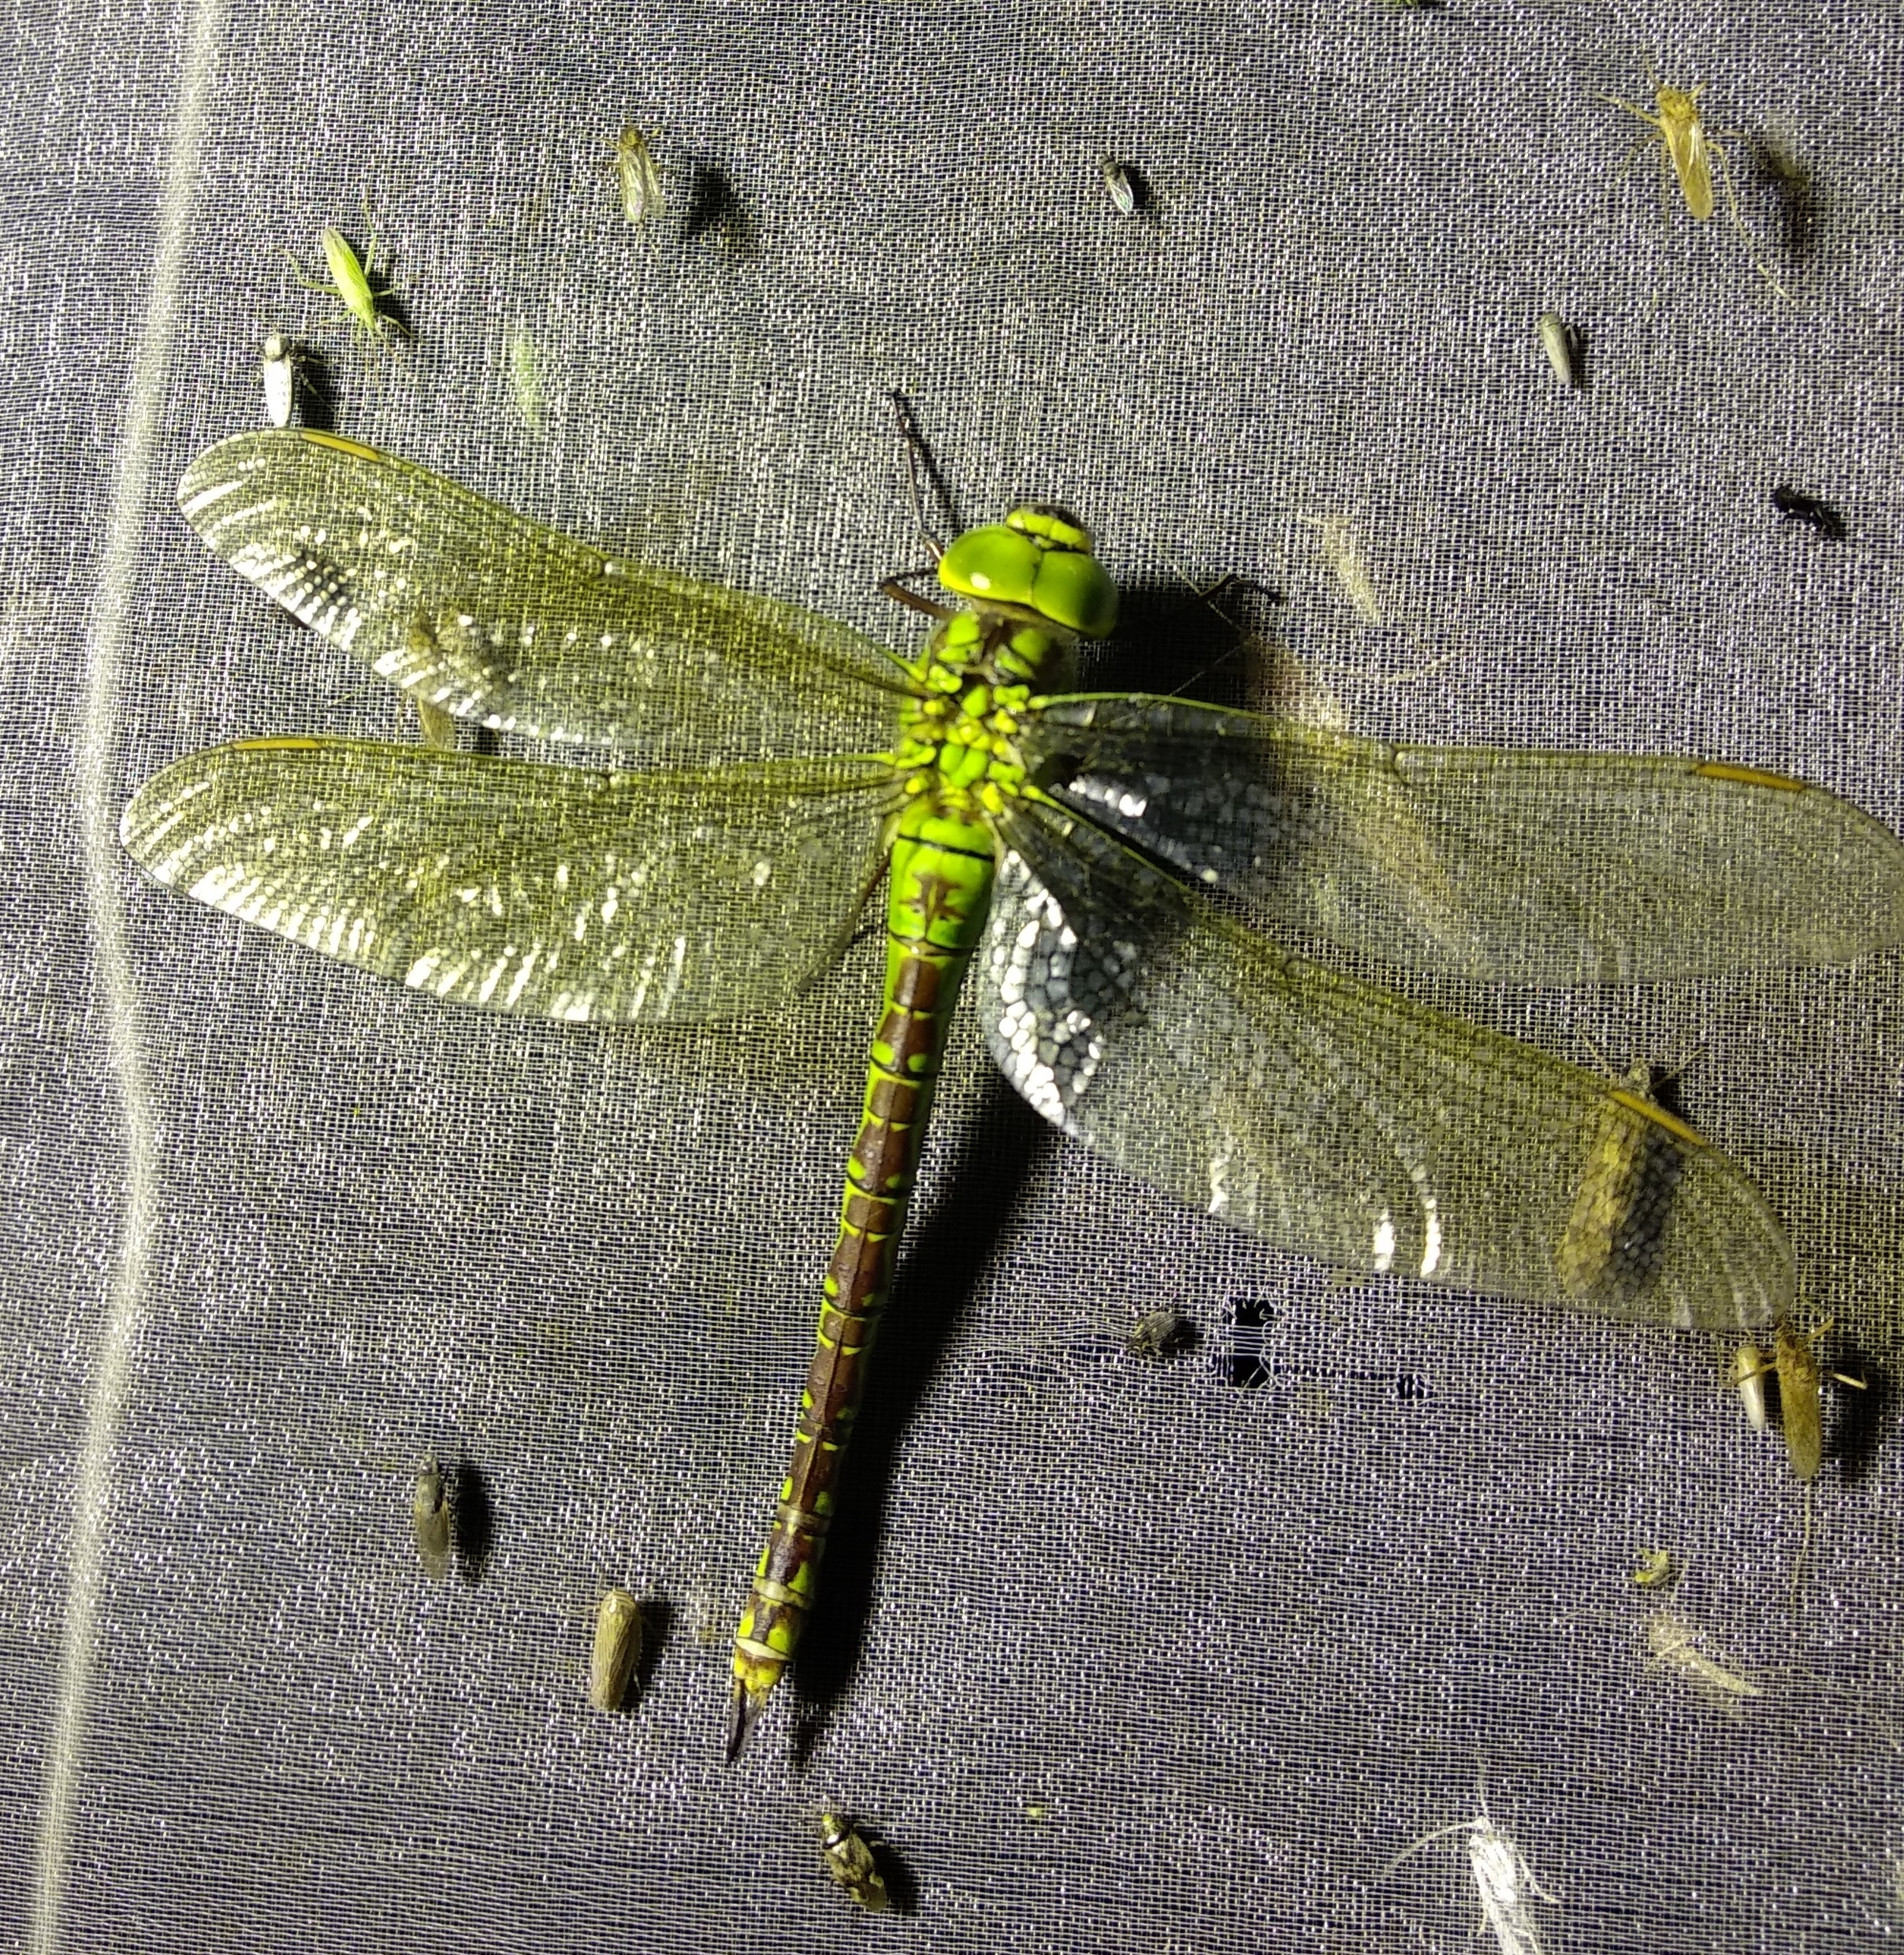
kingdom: Animalia
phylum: Arthropoda
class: Insecta
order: Odonata
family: Aeshnidae
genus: Aeshna
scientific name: Aeshna viridis
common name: Green hawker
